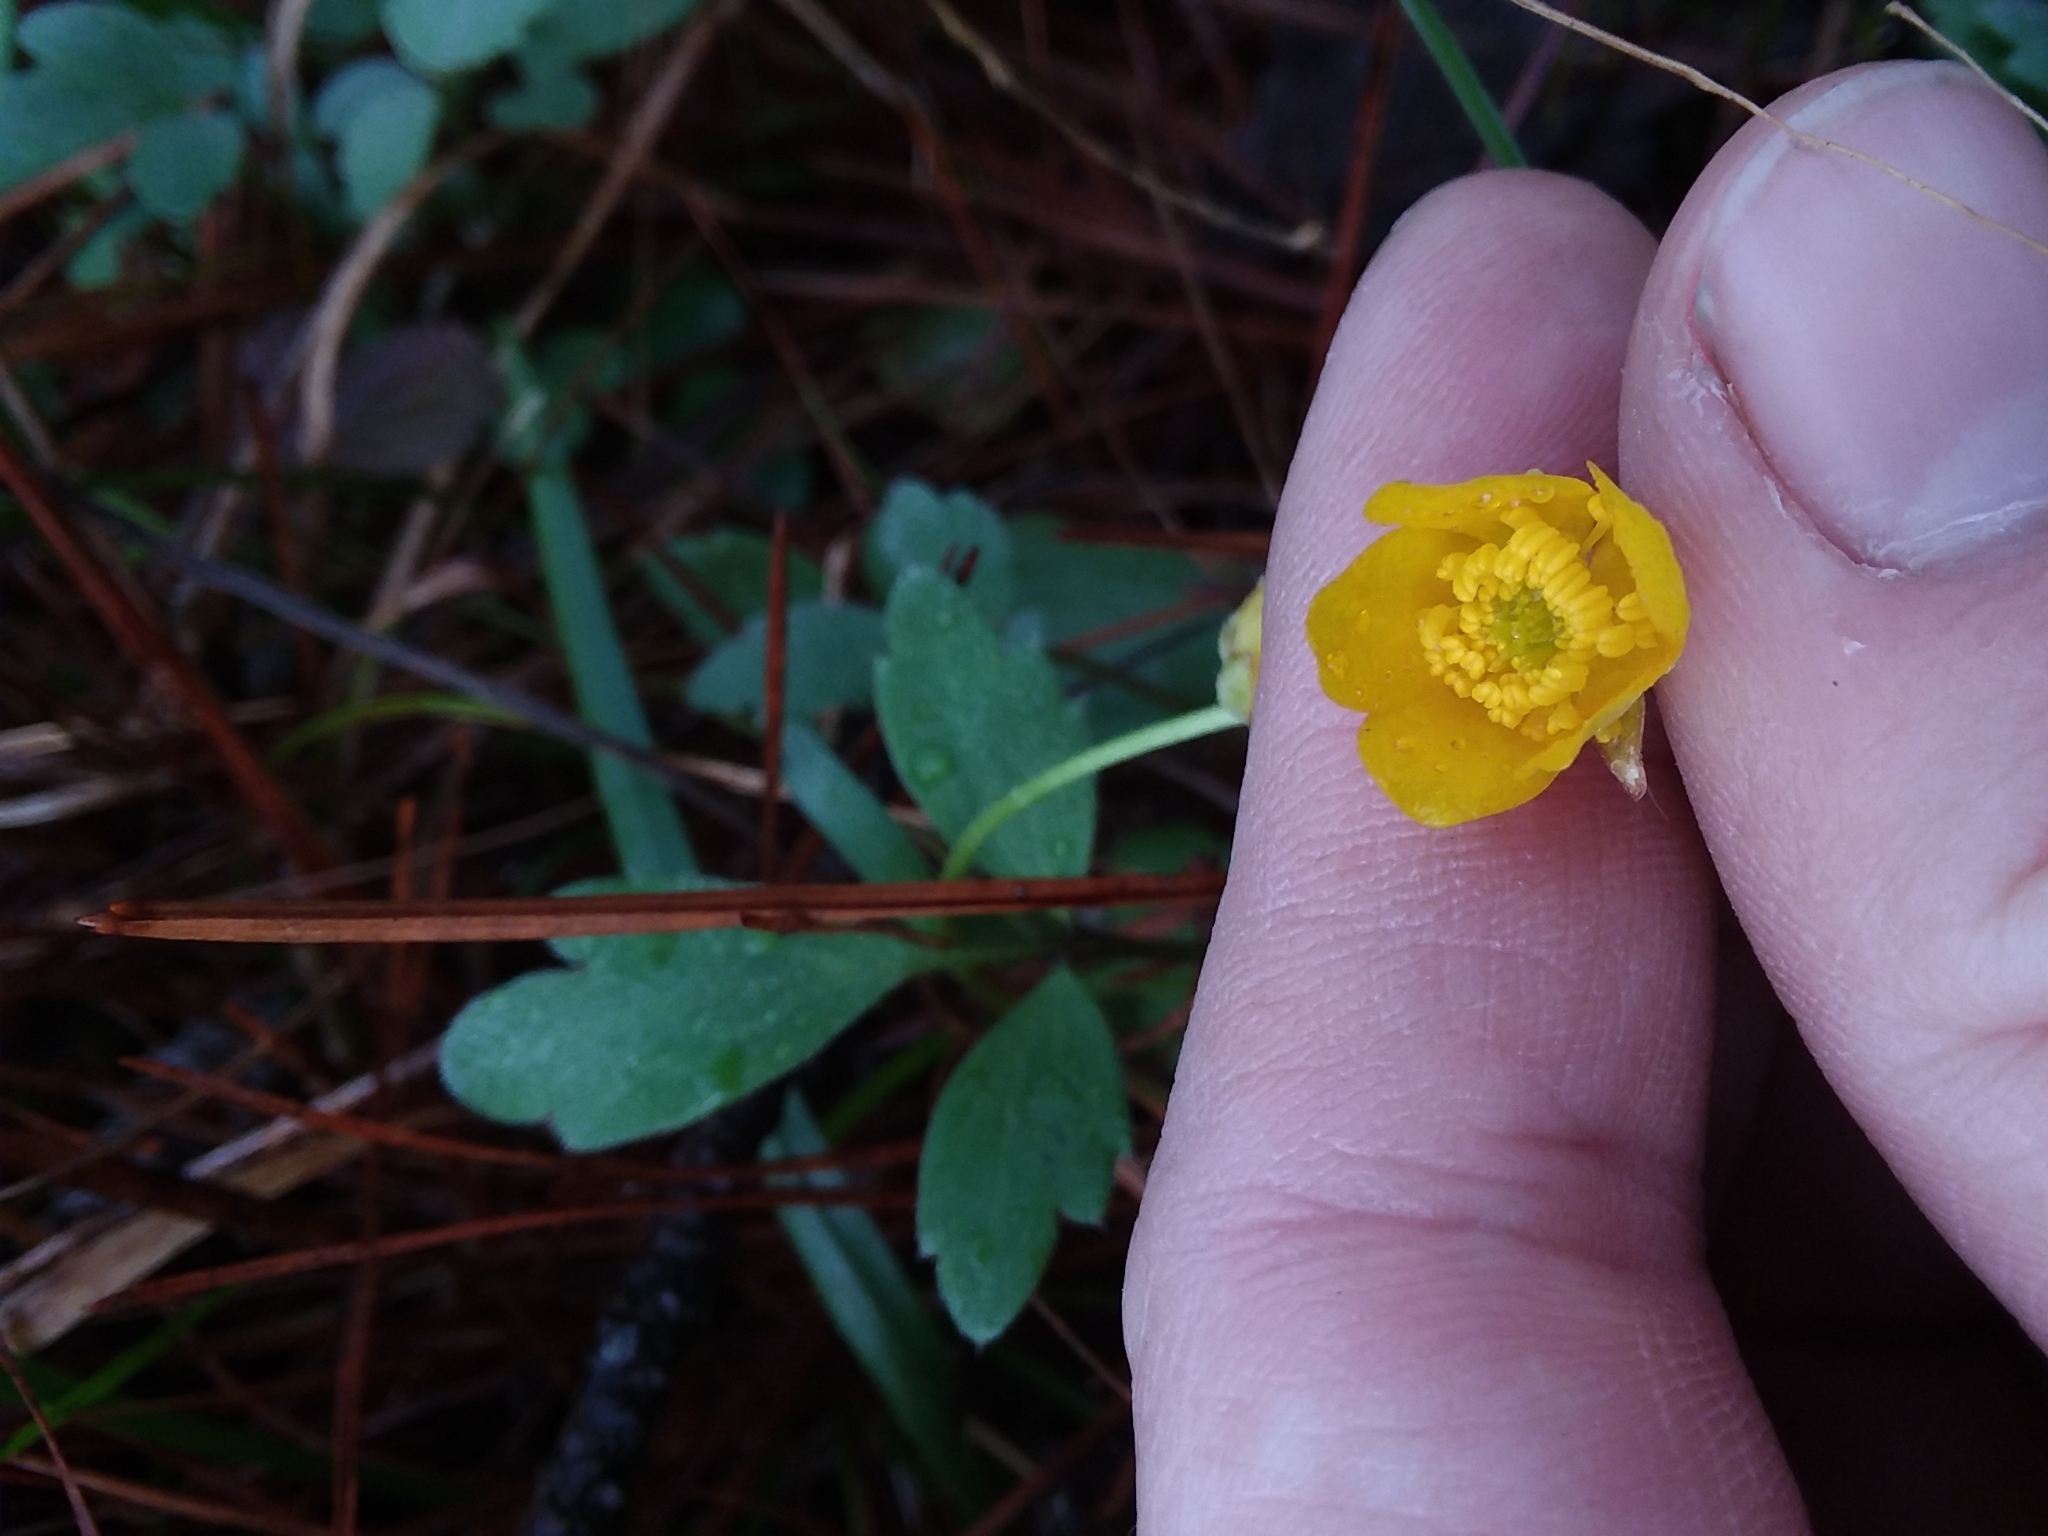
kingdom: Plantae
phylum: Tracheophyta
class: Magnoliopsida
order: Ranunculales
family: Ranunculaceae
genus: Ranunculus
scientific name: Ranunculus fascicularis
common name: Early buttercup
